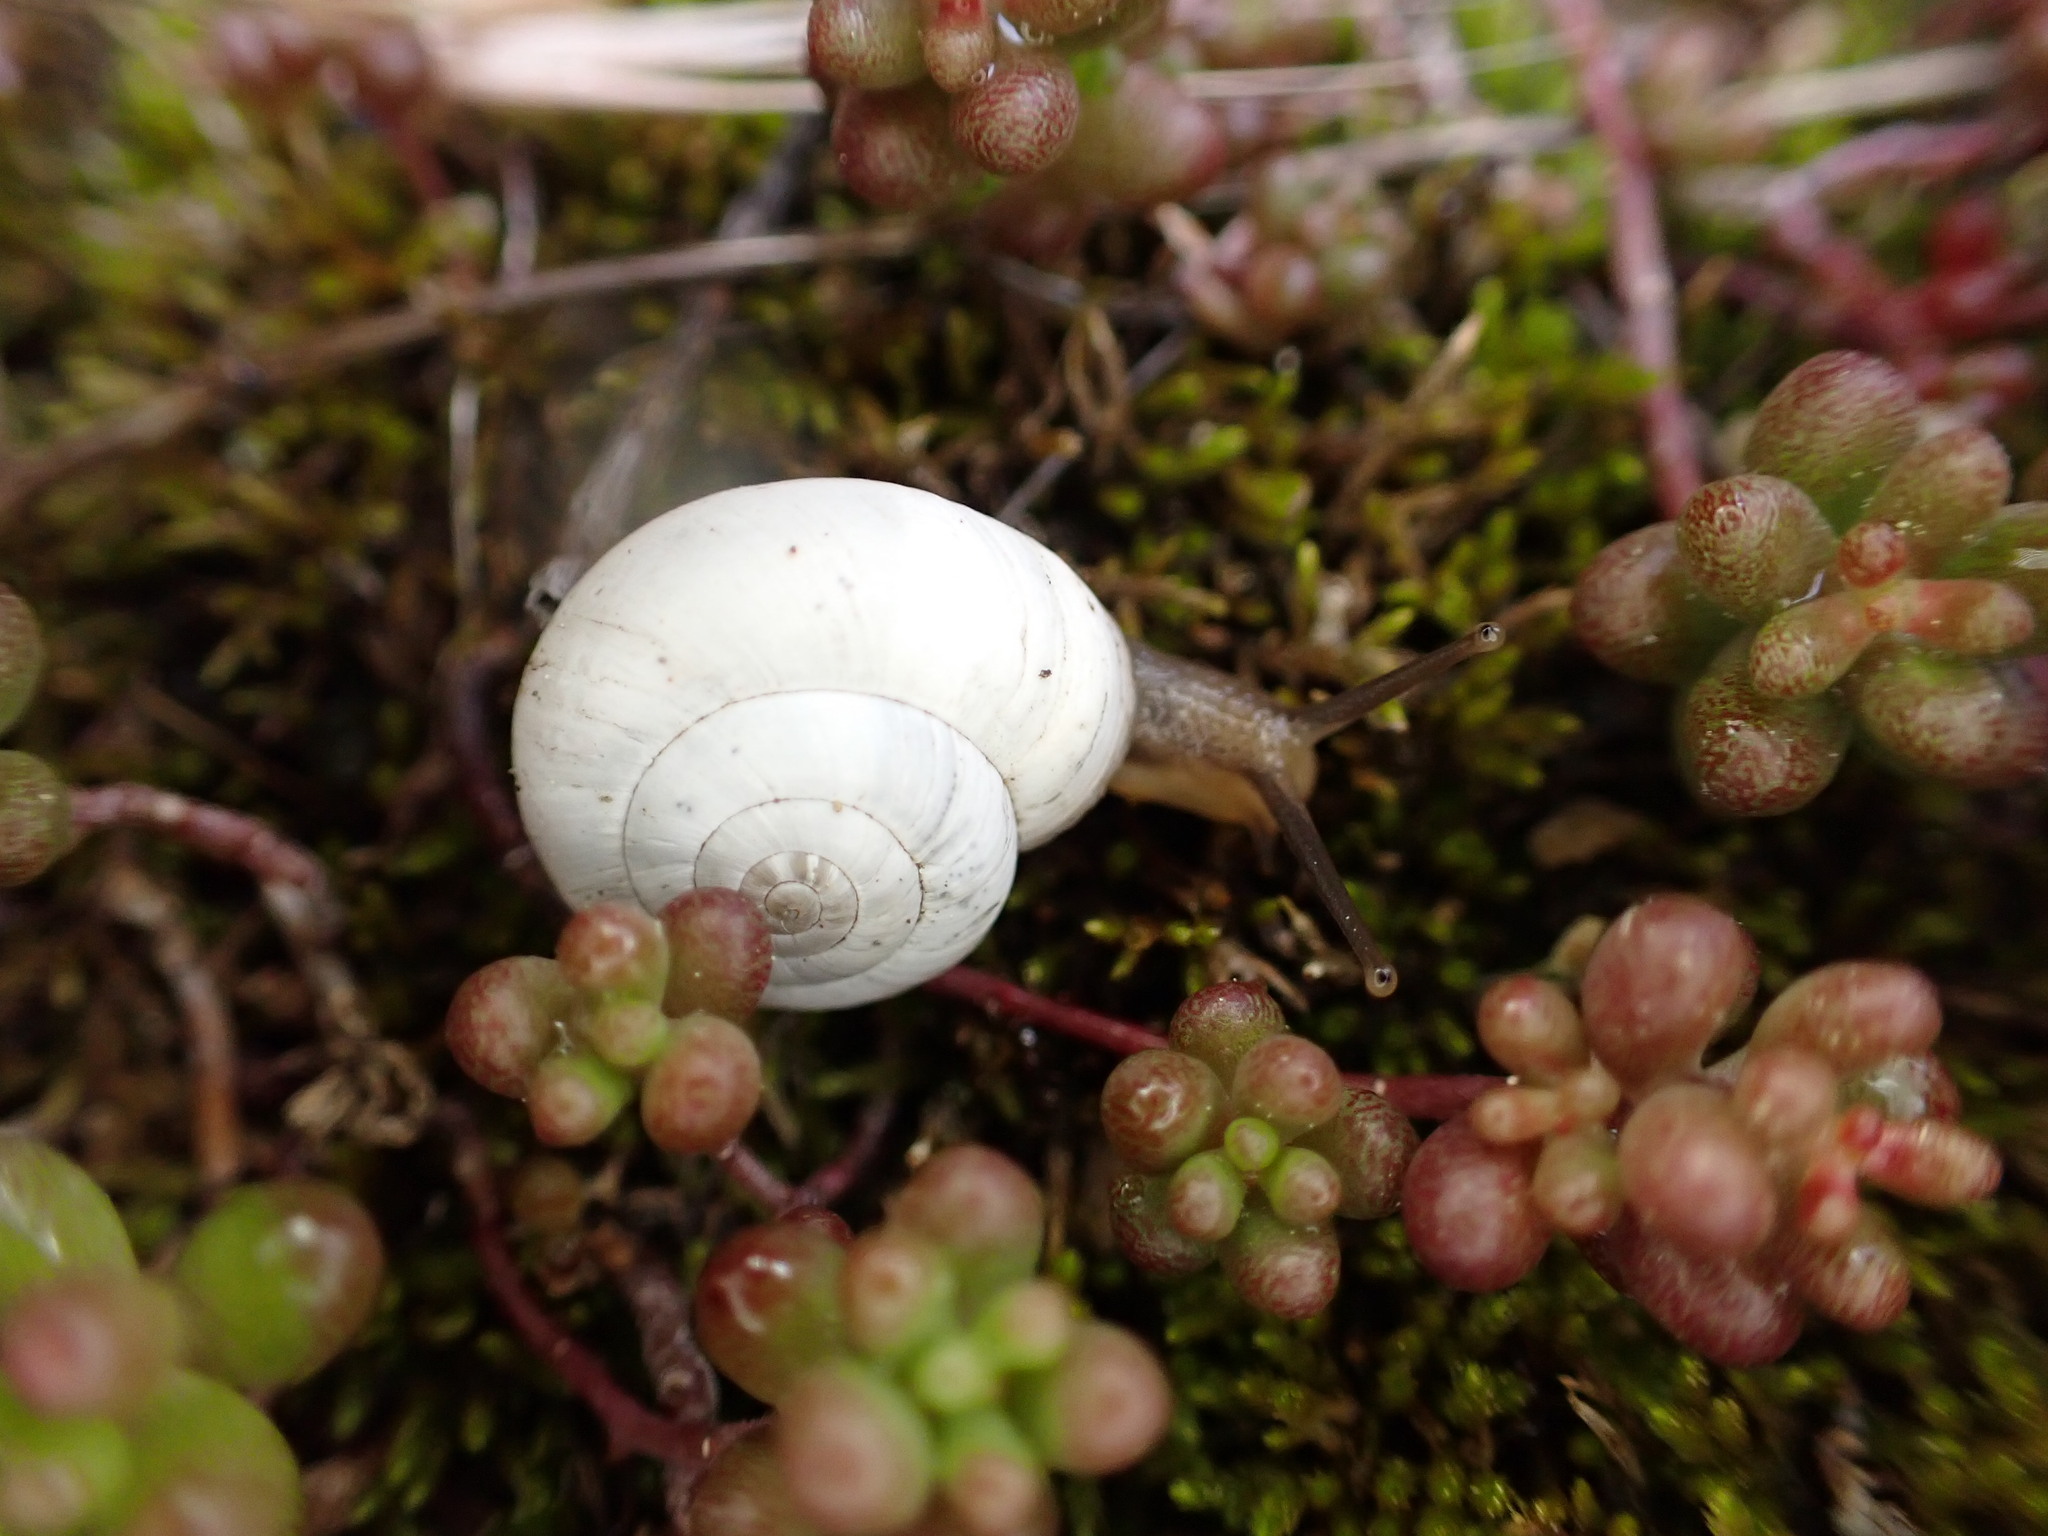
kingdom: Animalia
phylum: Mollusca
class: Gastropoda
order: Stylommatophora
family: Geomitridae
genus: Xeropicta
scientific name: Xeropicta derbentina
